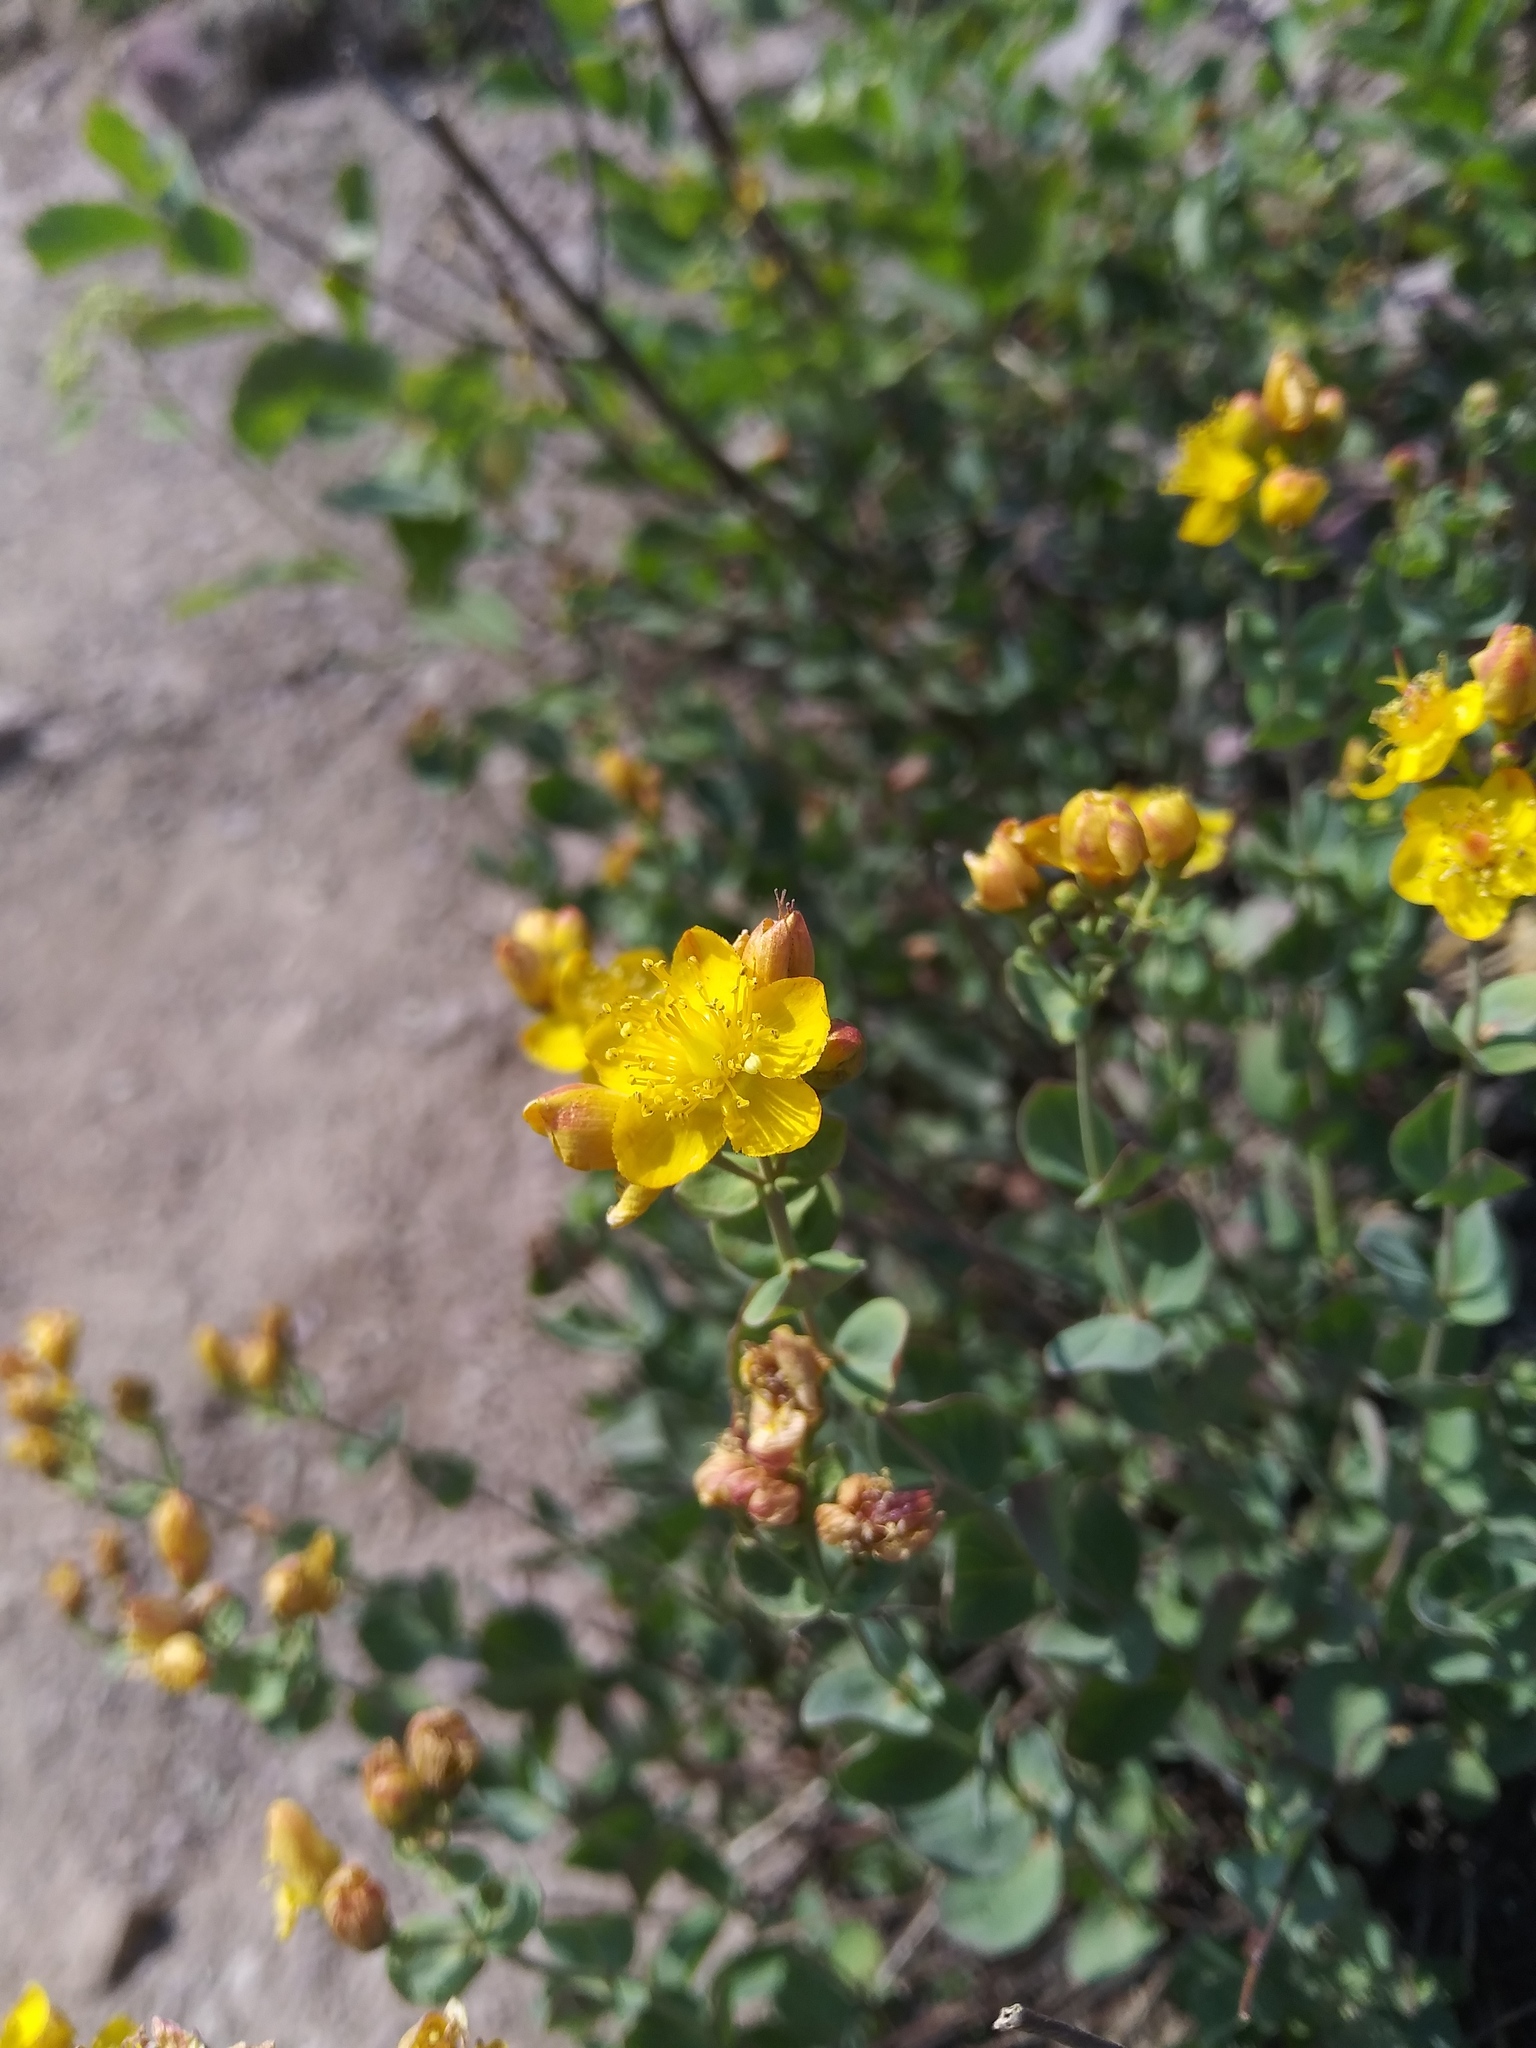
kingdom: Plantae
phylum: Tracheophyta
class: Magnoliopsida
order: Malpighiales
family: Hypericaceae
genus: Hypericum
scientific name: Hypericum scouleri
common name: Scouler's st. john's-wort
